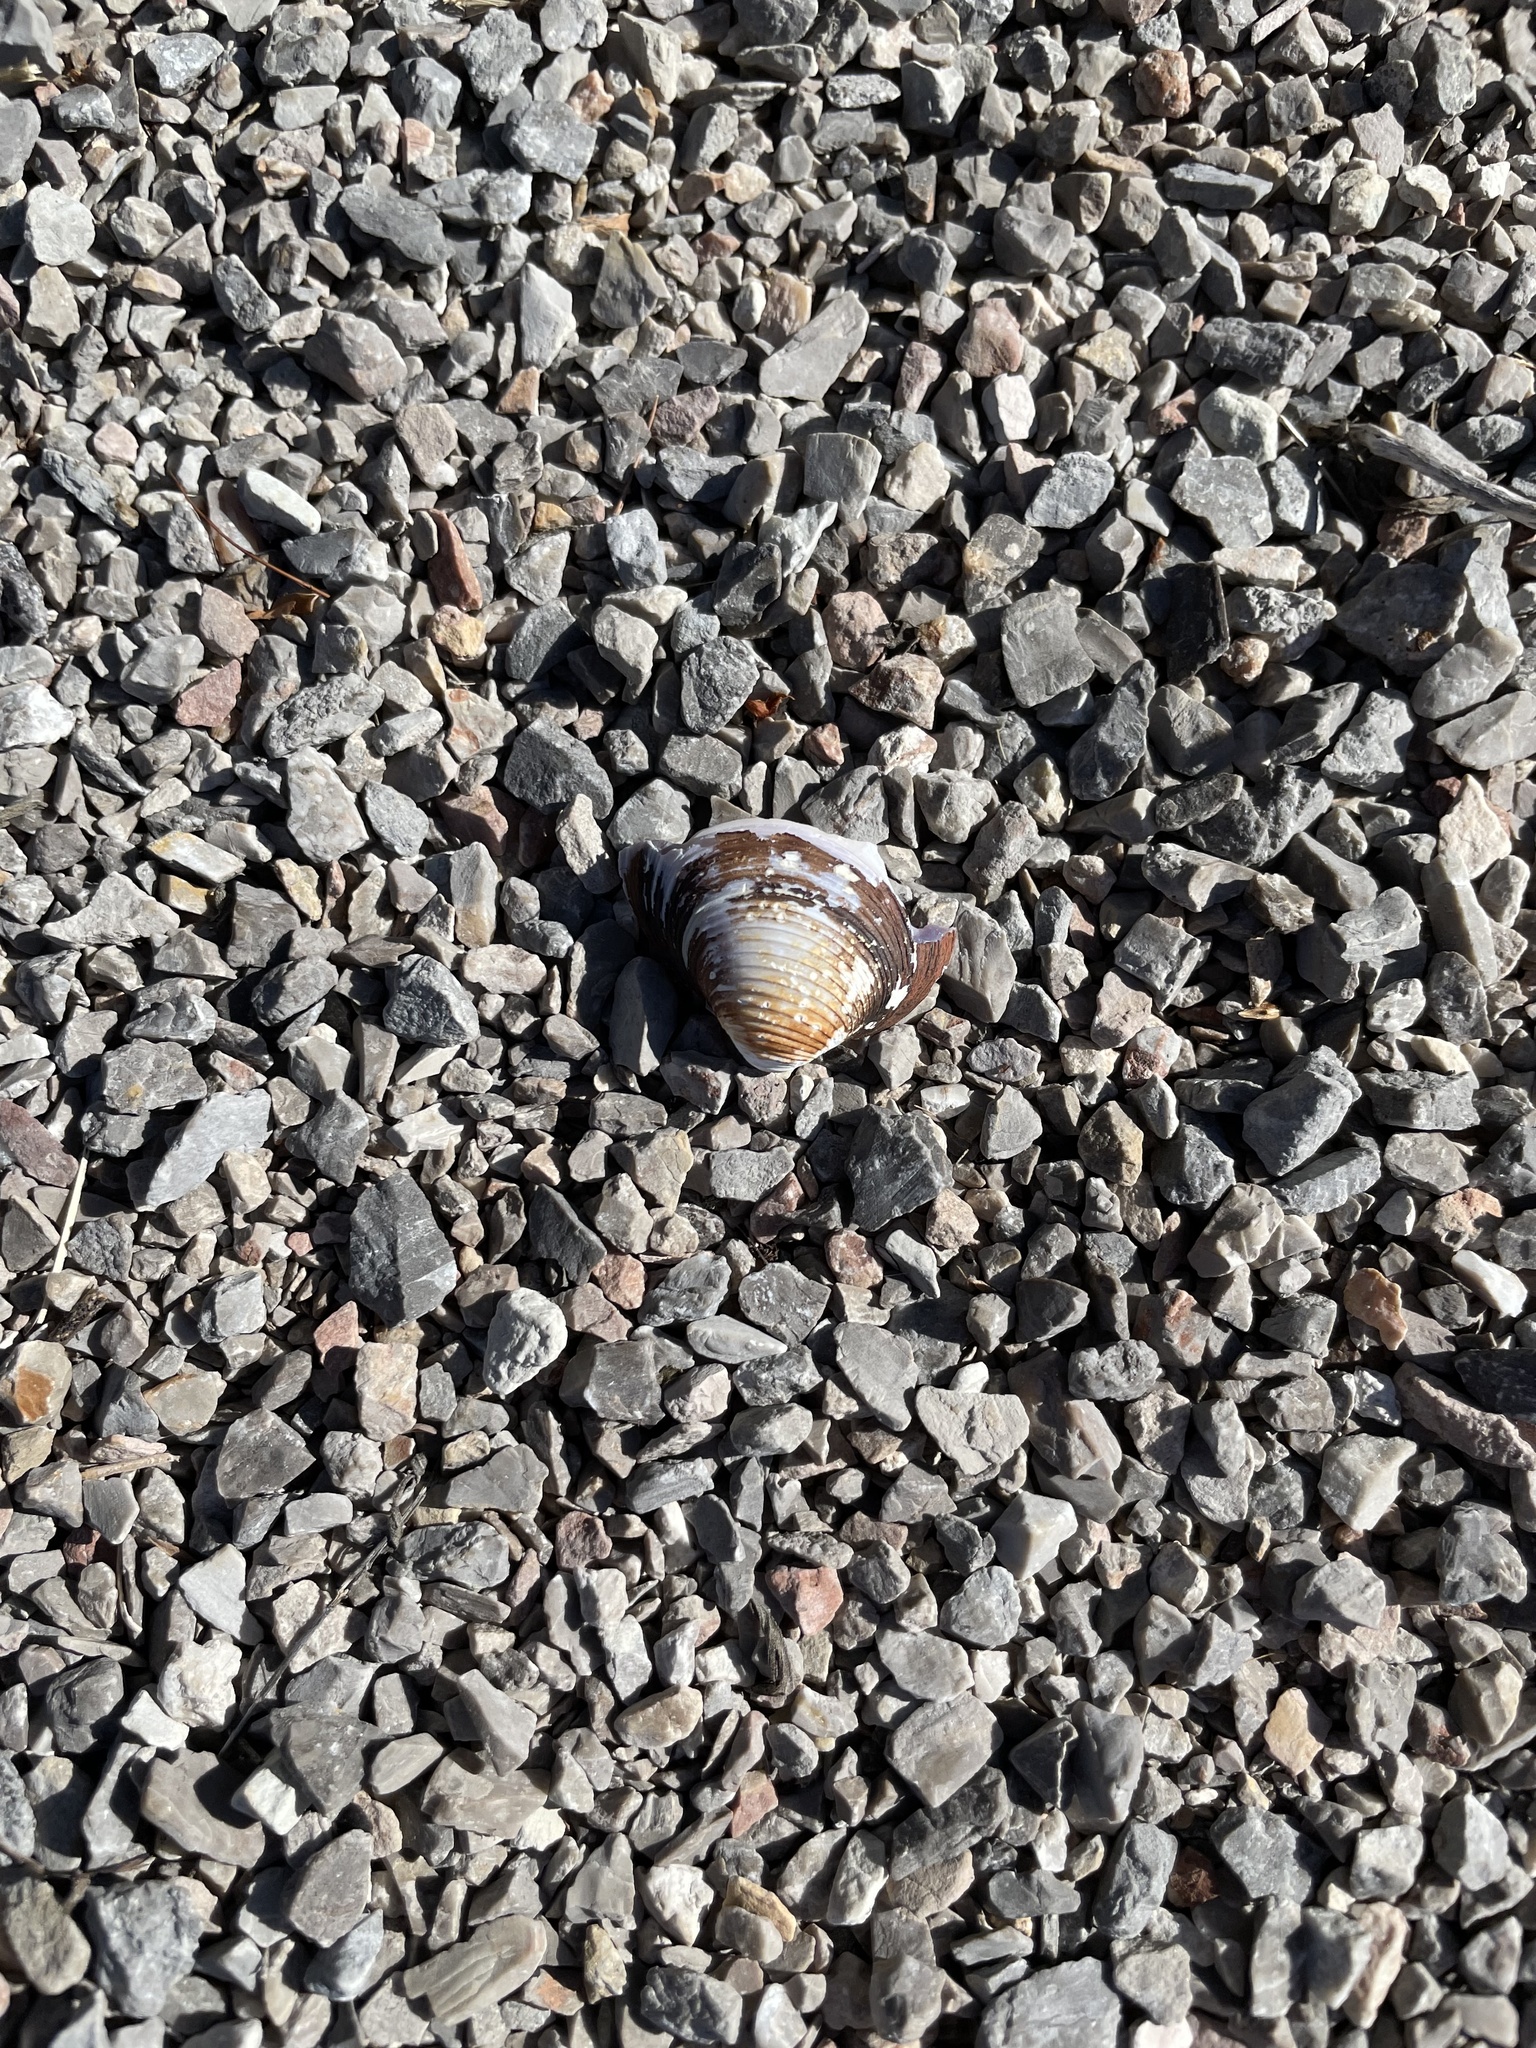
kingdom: Animalia
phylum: Mollusca
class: Bivalvia
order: Venerida
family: Cyrenidae
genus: Corbicula
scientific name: Corbicula fluminea
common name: Asian clam
